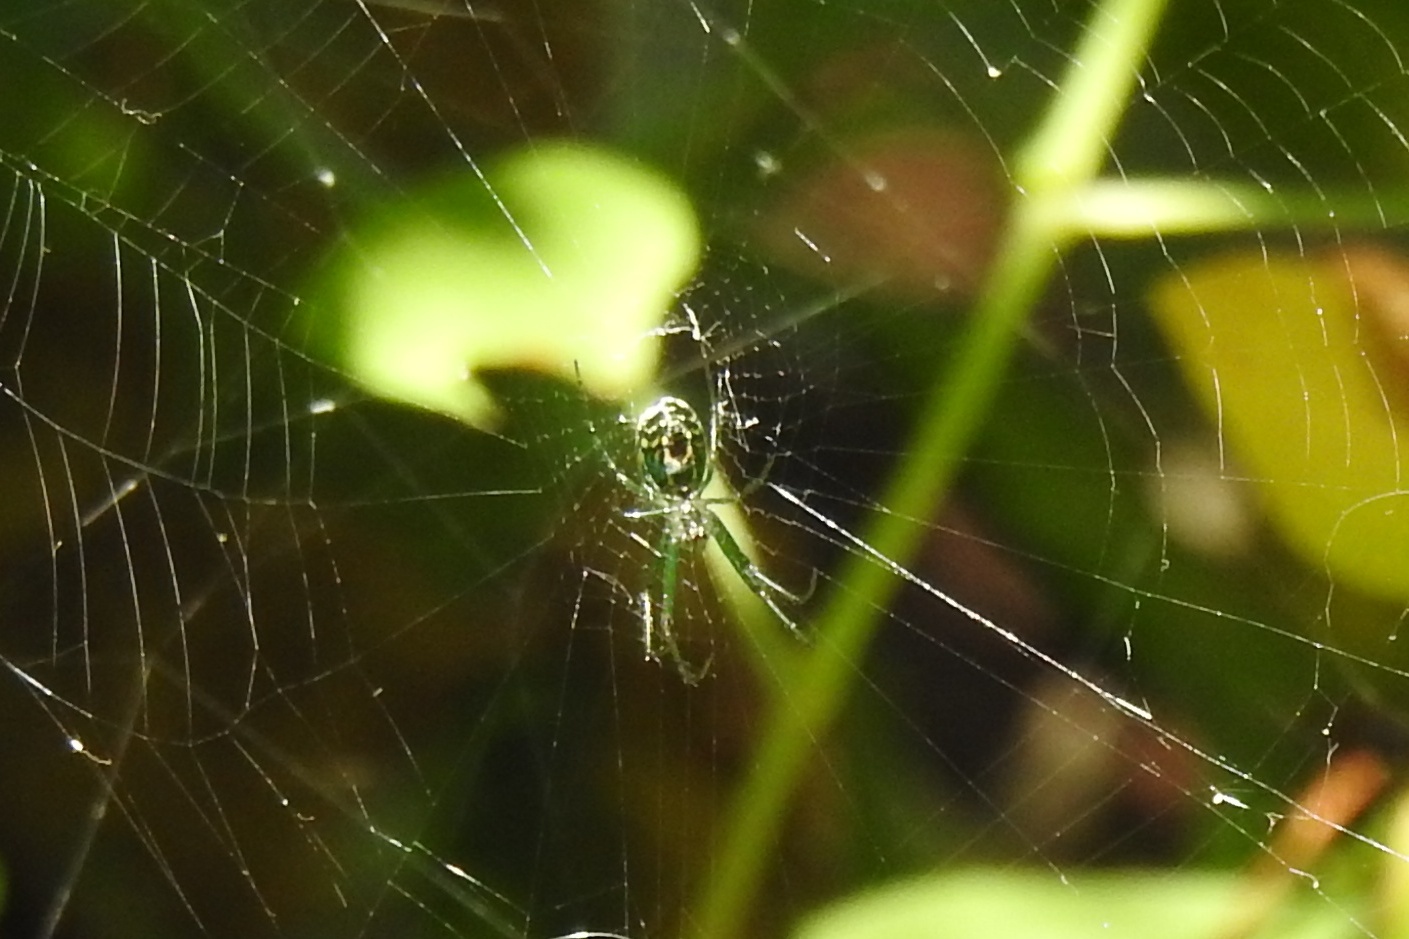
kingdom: Animalia
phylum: Arthropoda
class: Arachnida
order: Araneae
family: Tetragnathidae
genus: Leucauge
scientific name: Leucauge venusta
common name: Longjawed orb weavers
